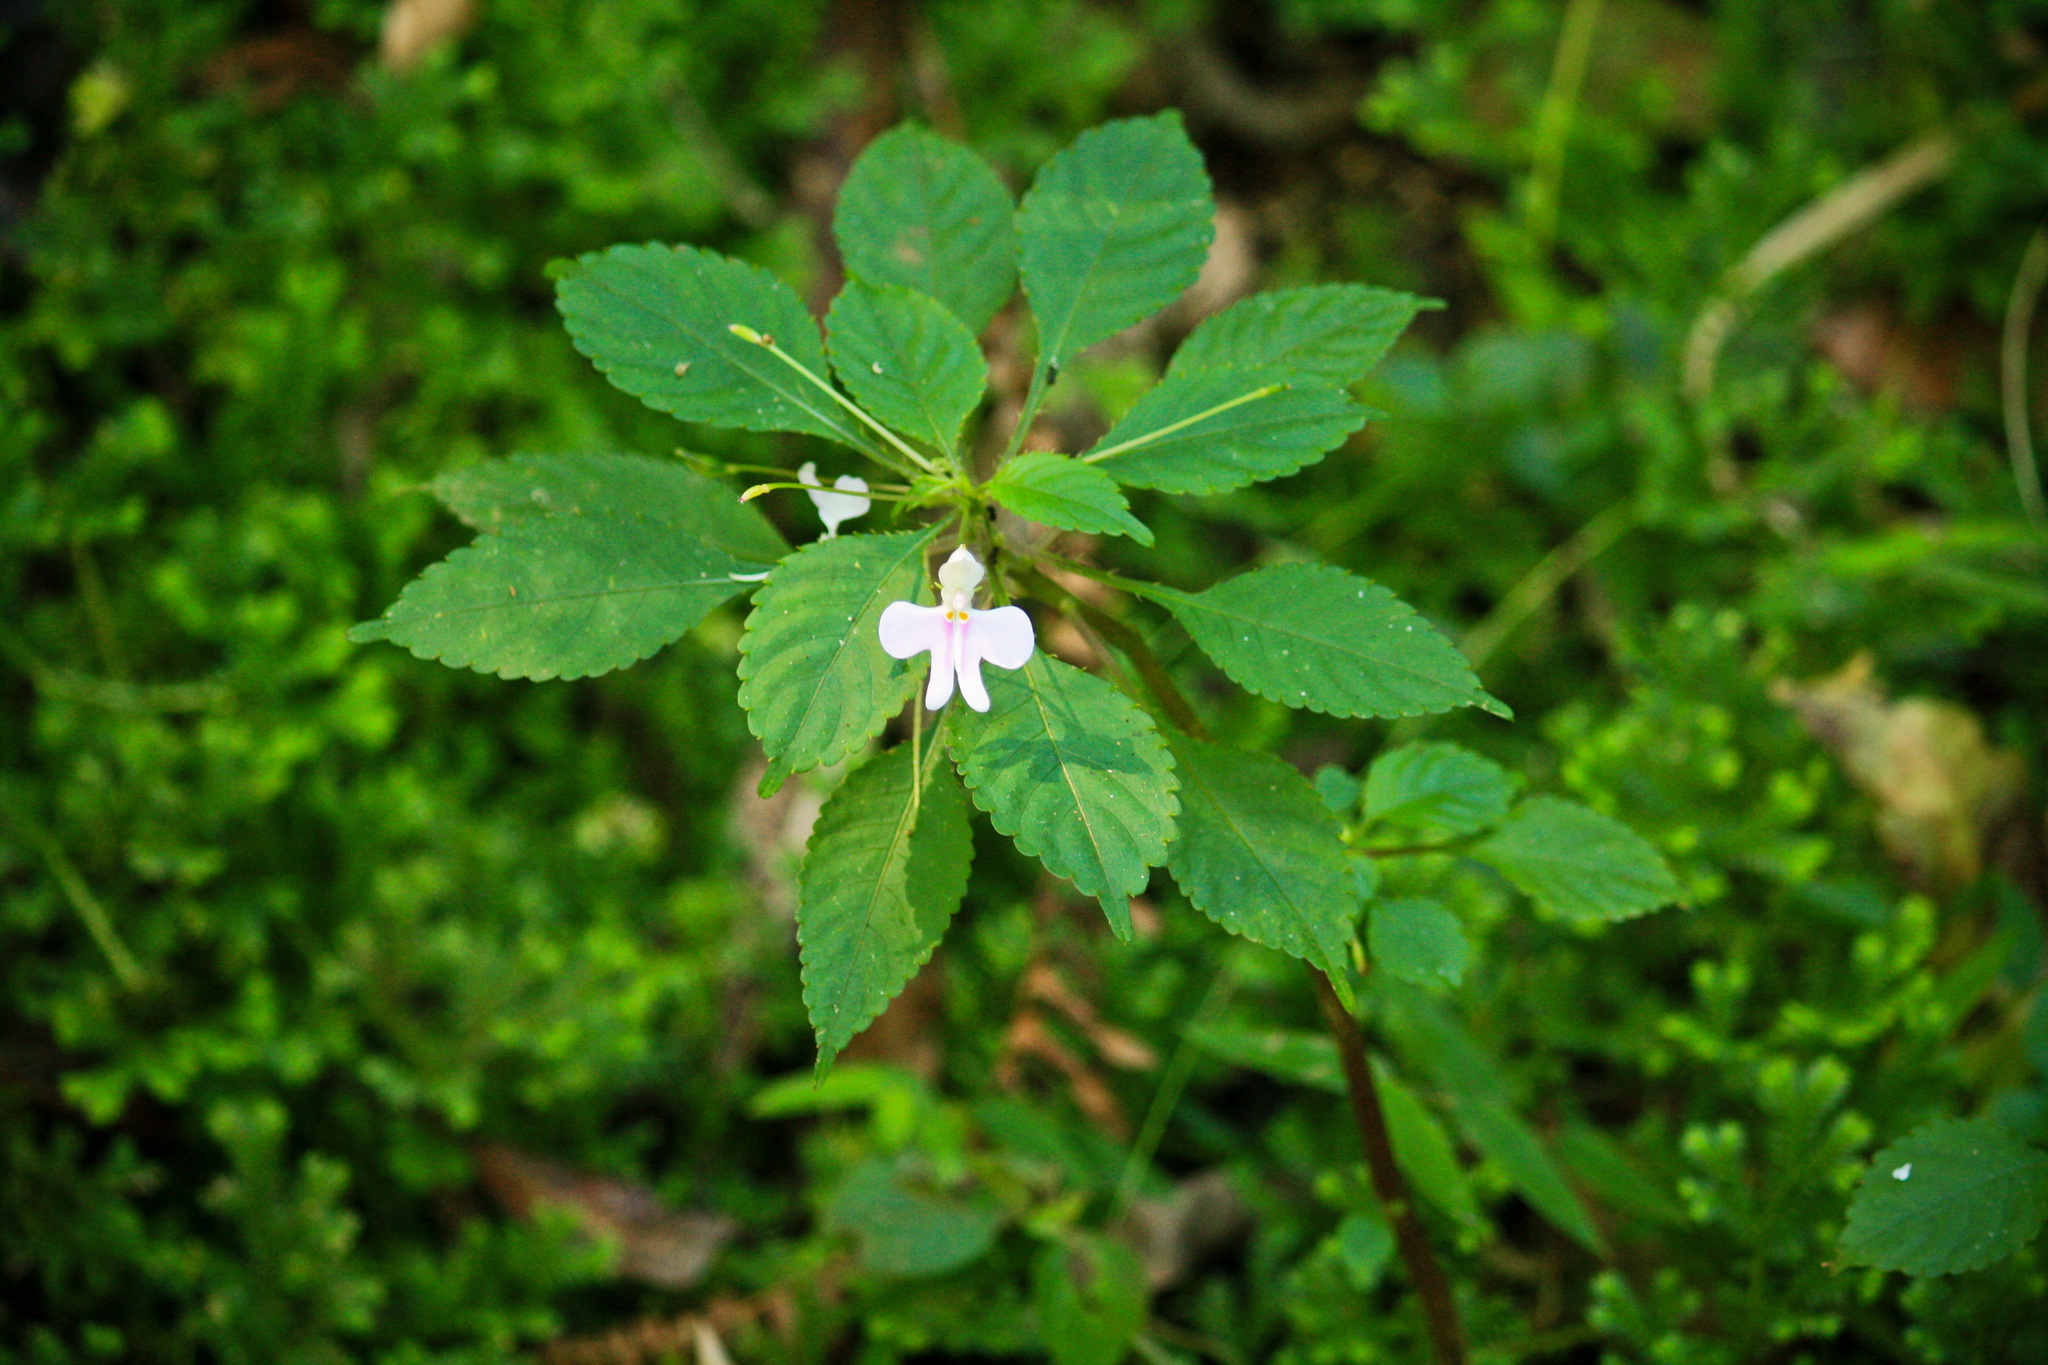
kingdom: Plantae
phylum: Tracheophyta
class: Magnoliopsida
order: Ericales
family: Balsaminaceae
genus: Impatiens
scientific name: Impatiens hochstetteri
